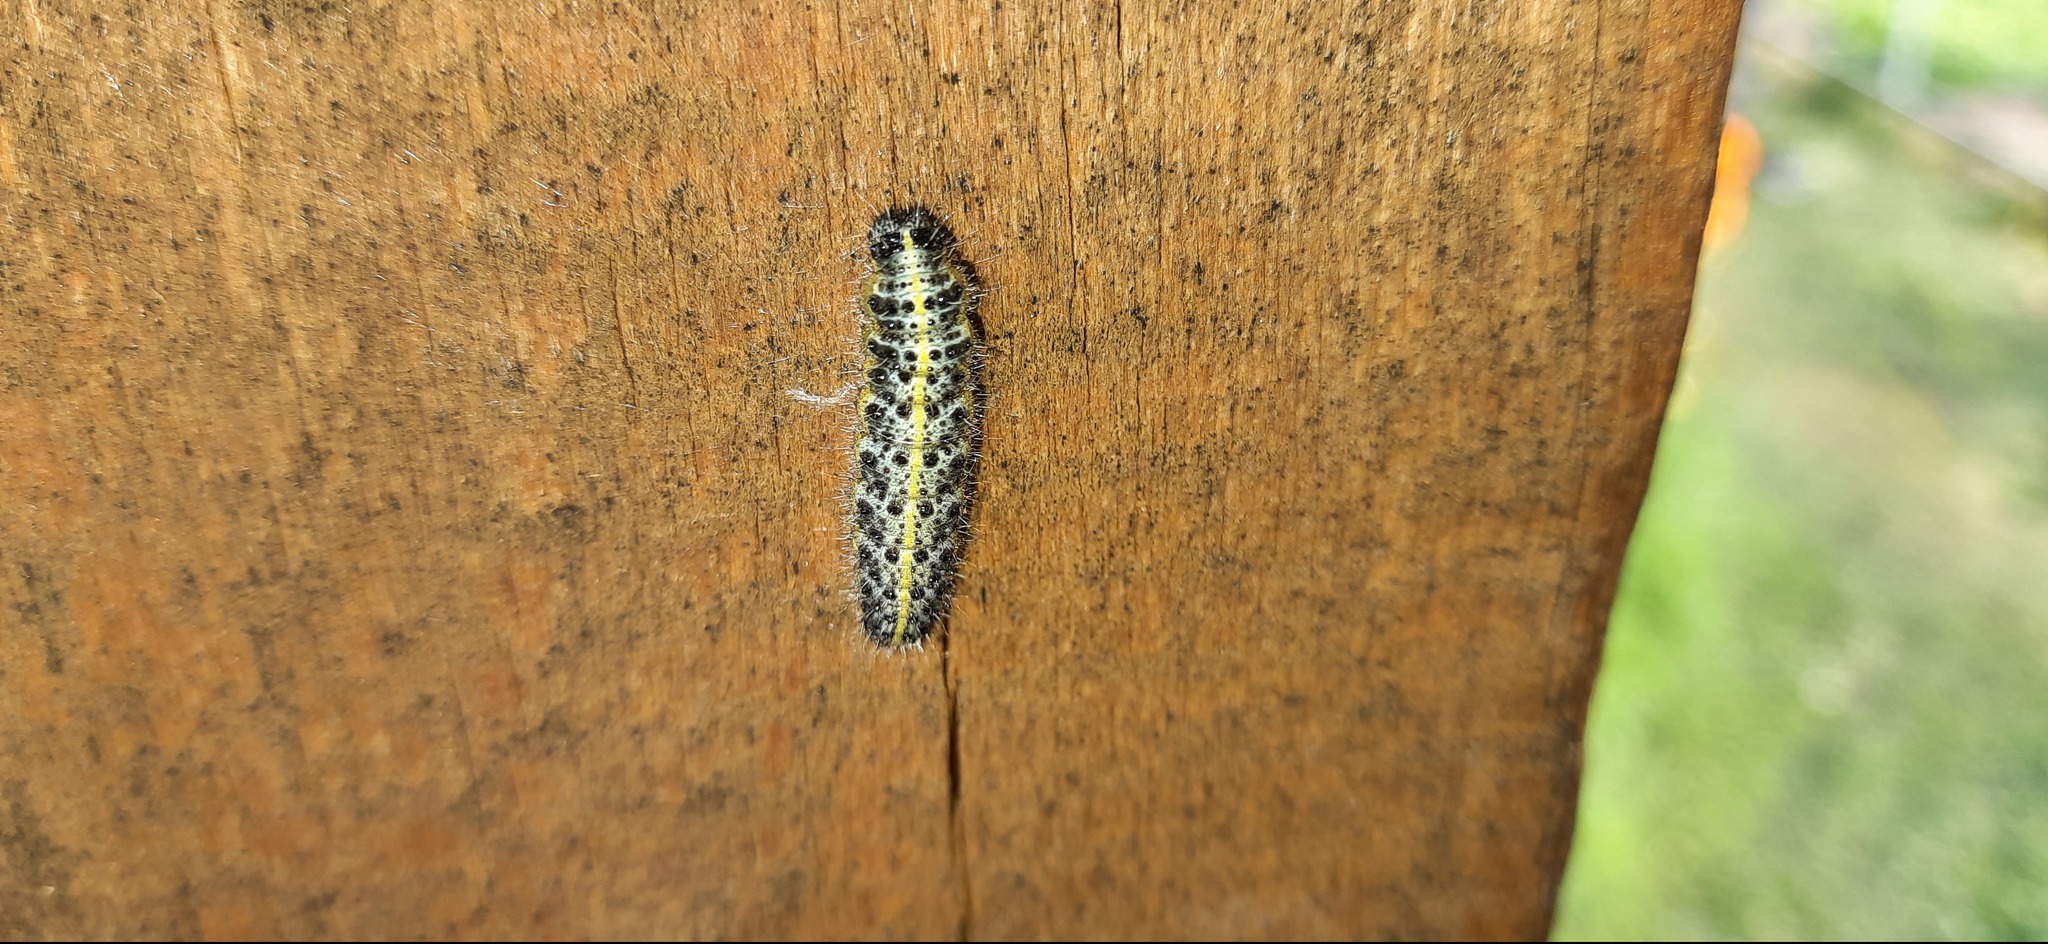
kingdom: Animalia
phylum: Arthropoda
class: Insecta
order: Lepidoptera
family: Pieridae
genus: Pieris
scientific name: Pieris brassicae
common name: Large white
